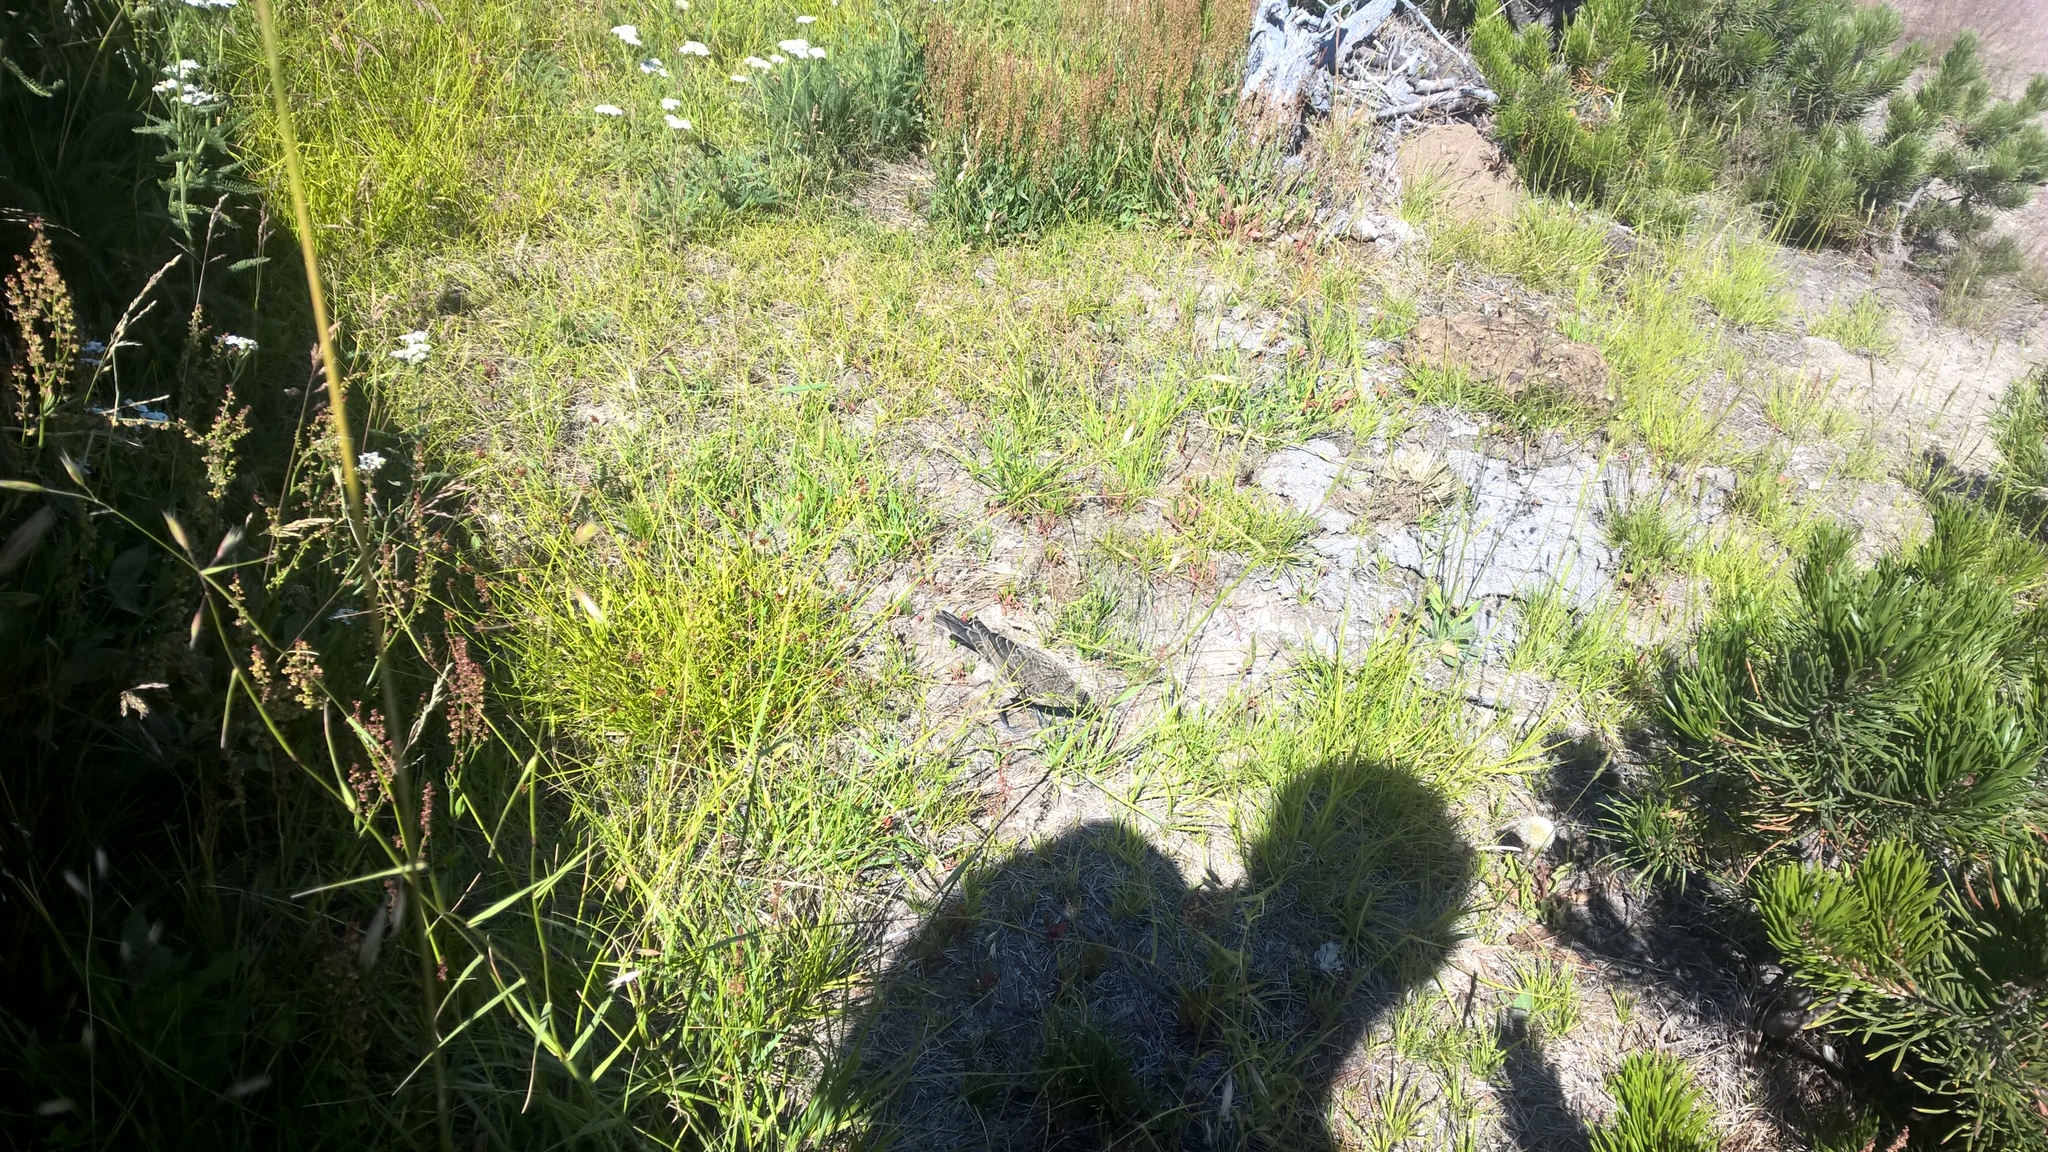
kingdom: Animalia
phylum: Chordata
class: Aves
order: Passeriformes
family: Icteridae
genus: Molothrus
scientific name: Molothrus ater
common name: Brown-headed cowbird
